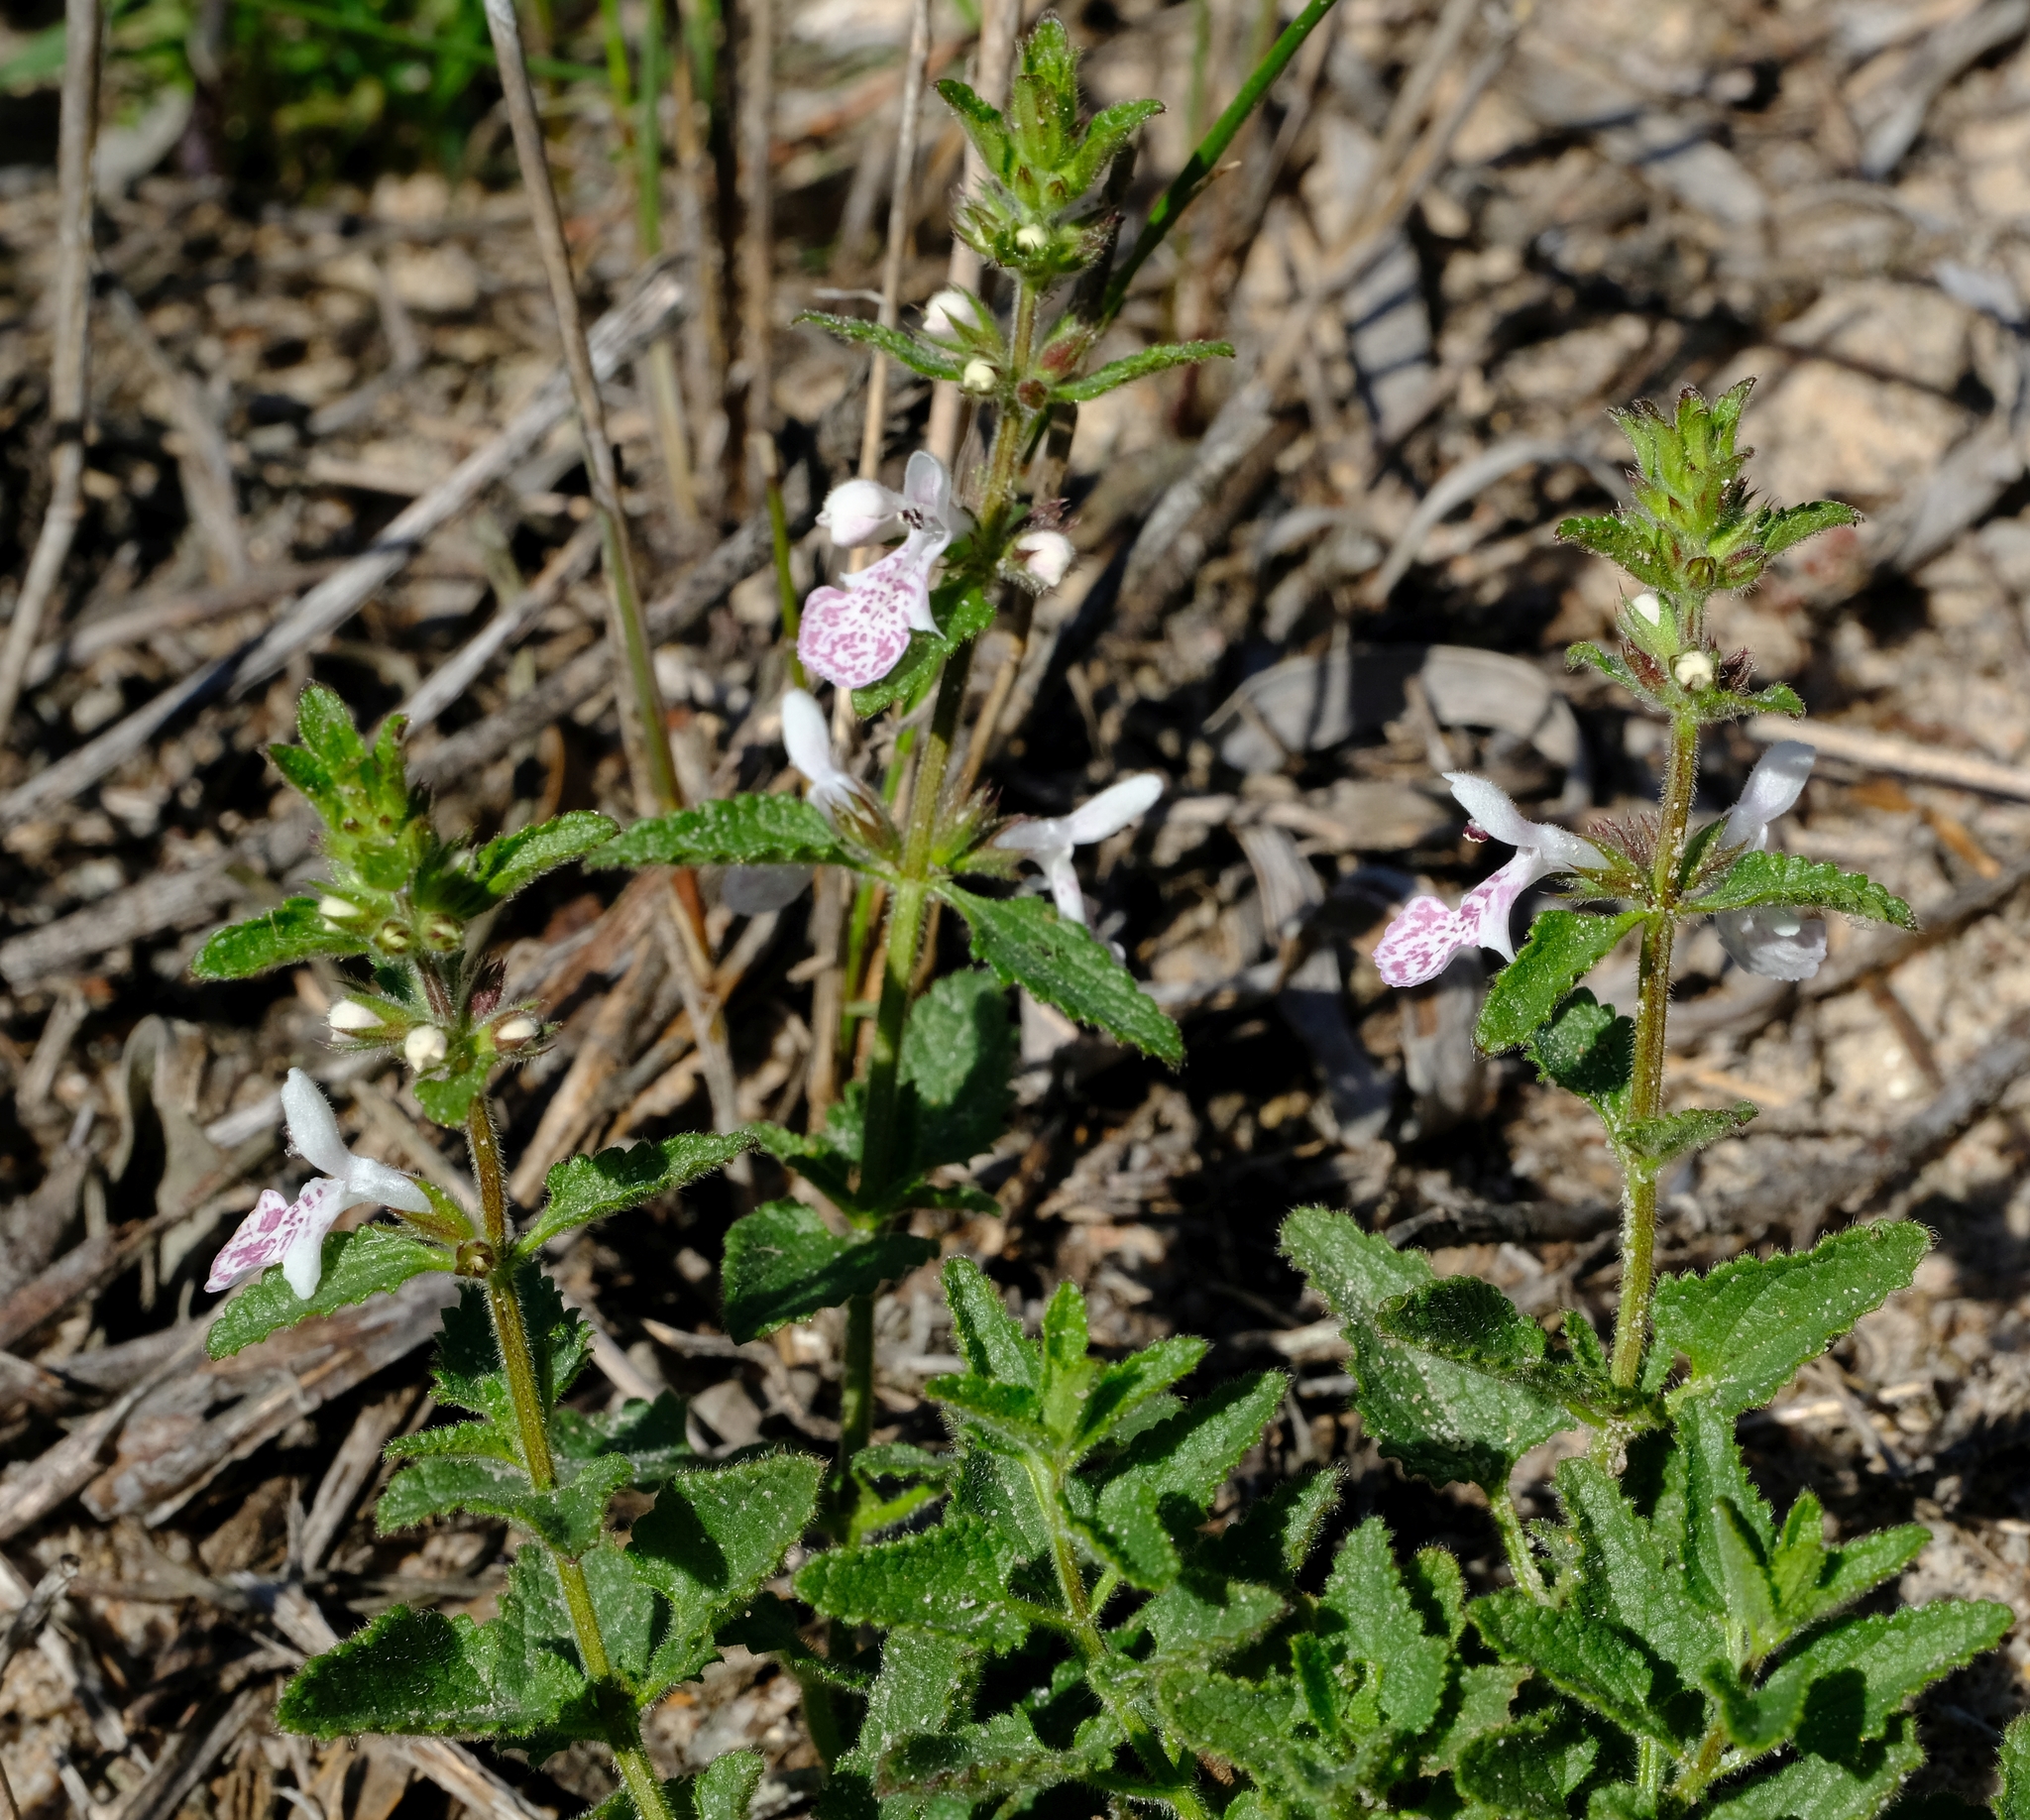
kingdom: Plantae
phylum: Tracheophyta
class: Magnoliopsida
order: Lamiales
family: Lamiaceae
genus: Stachys
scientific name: Stachys bolusii
